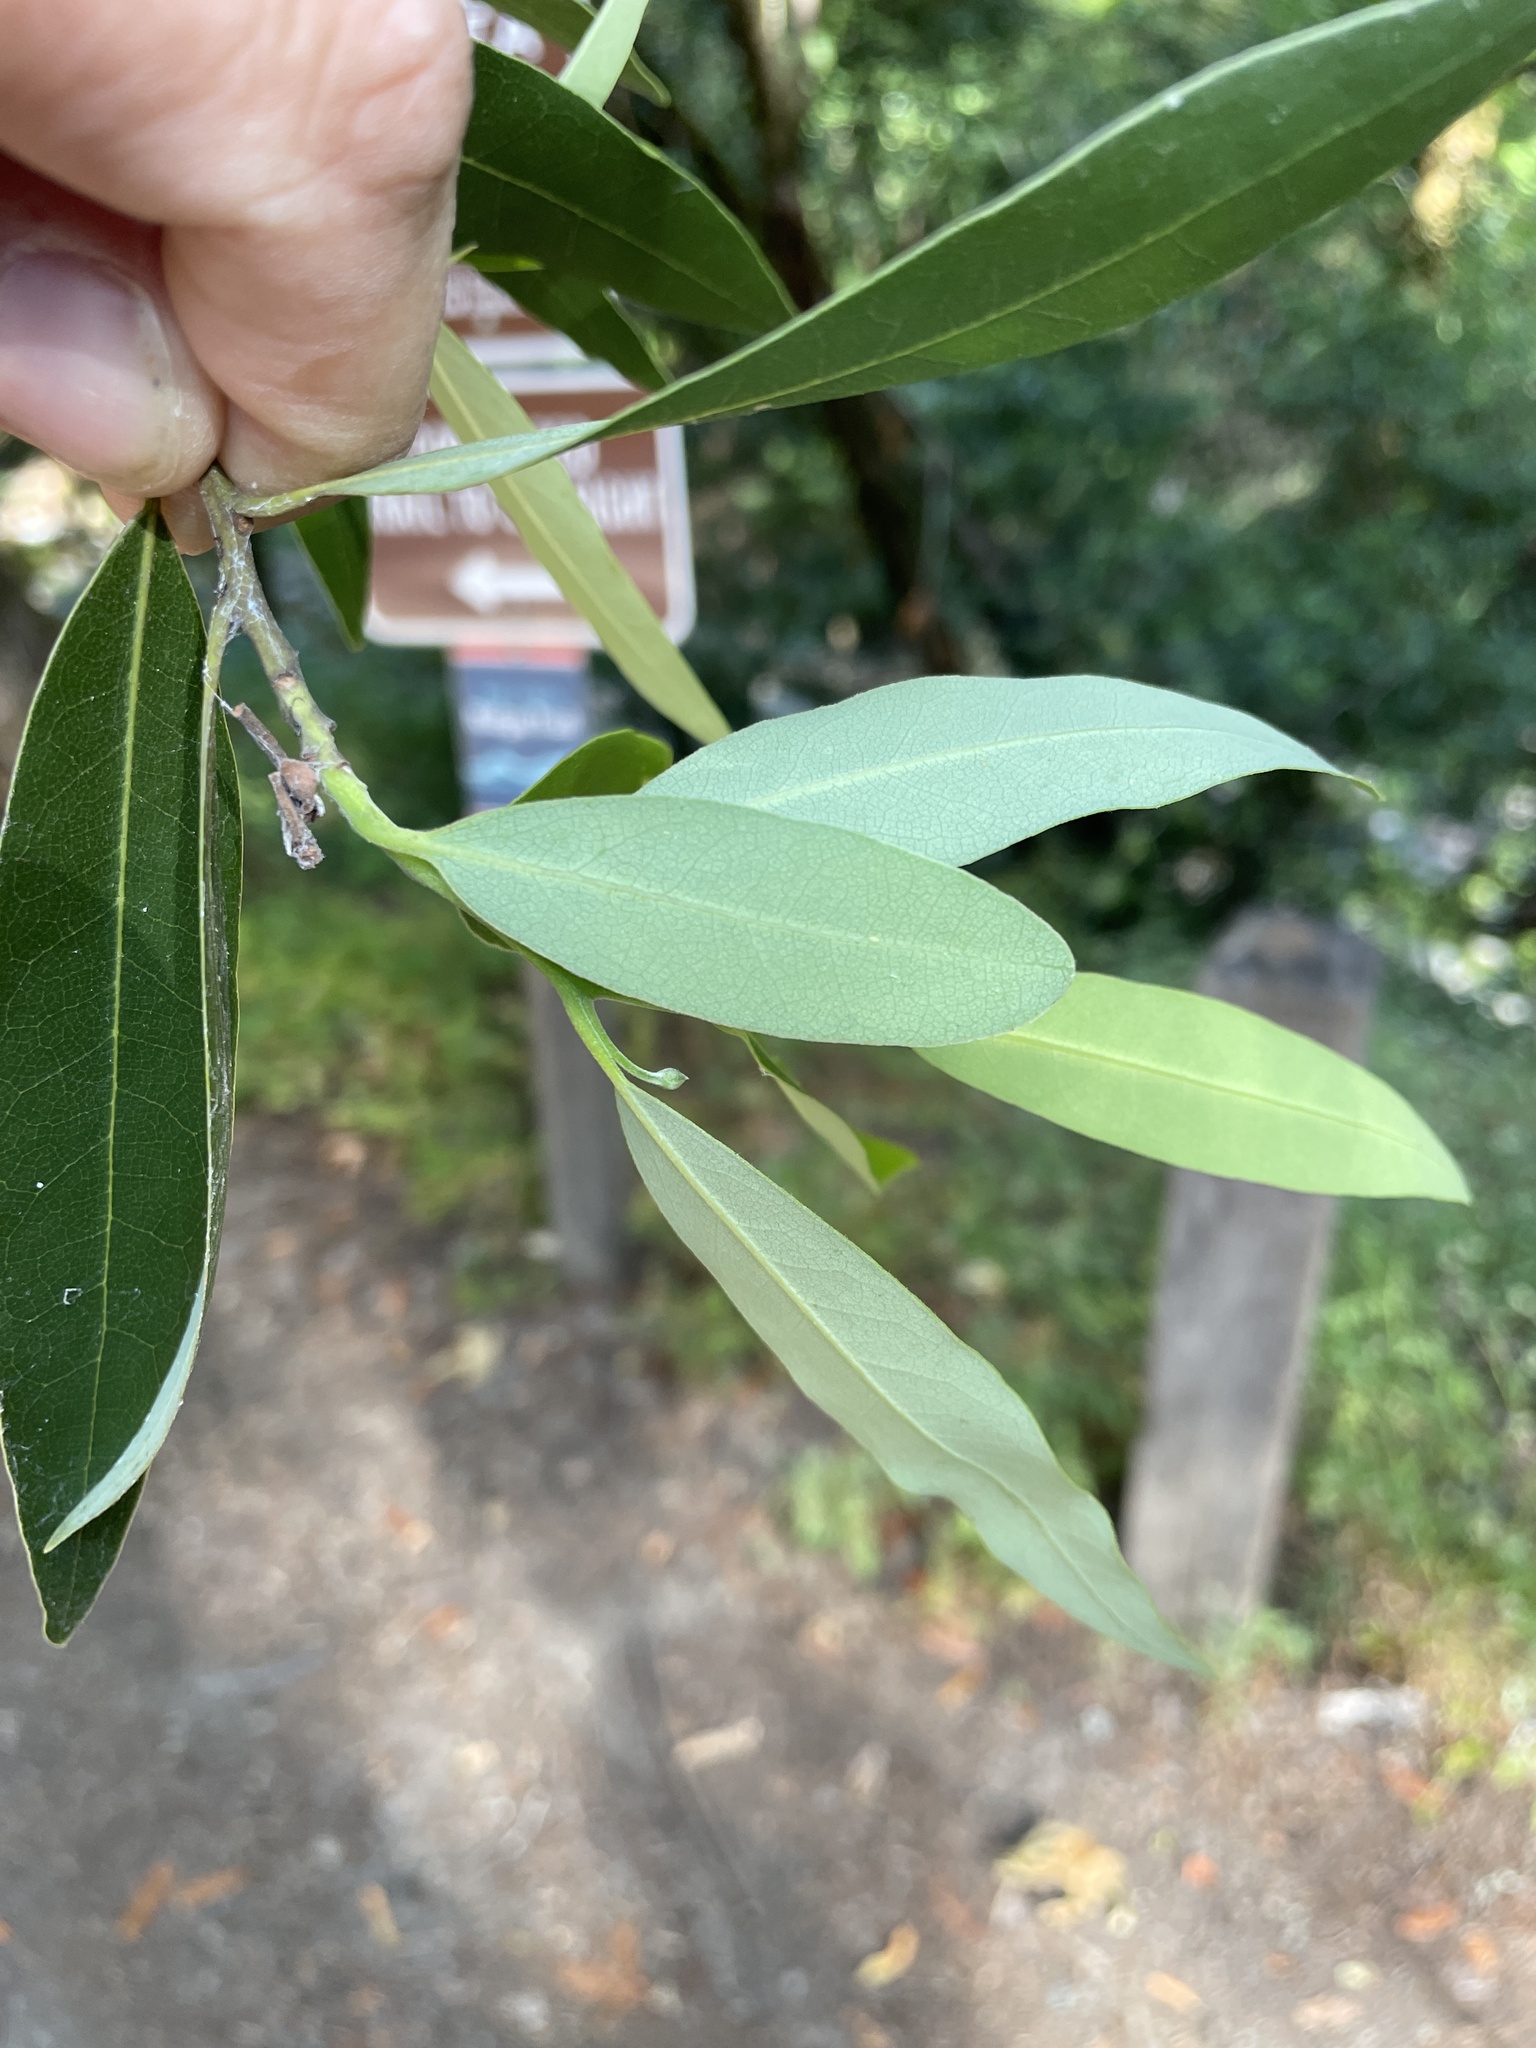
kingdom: Plantae
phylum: Tracheophyta
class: Magnoliopsida
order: Laurales
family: Lauraceae
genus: Umbellularia
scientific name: Umbellularia californica
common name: California bay
